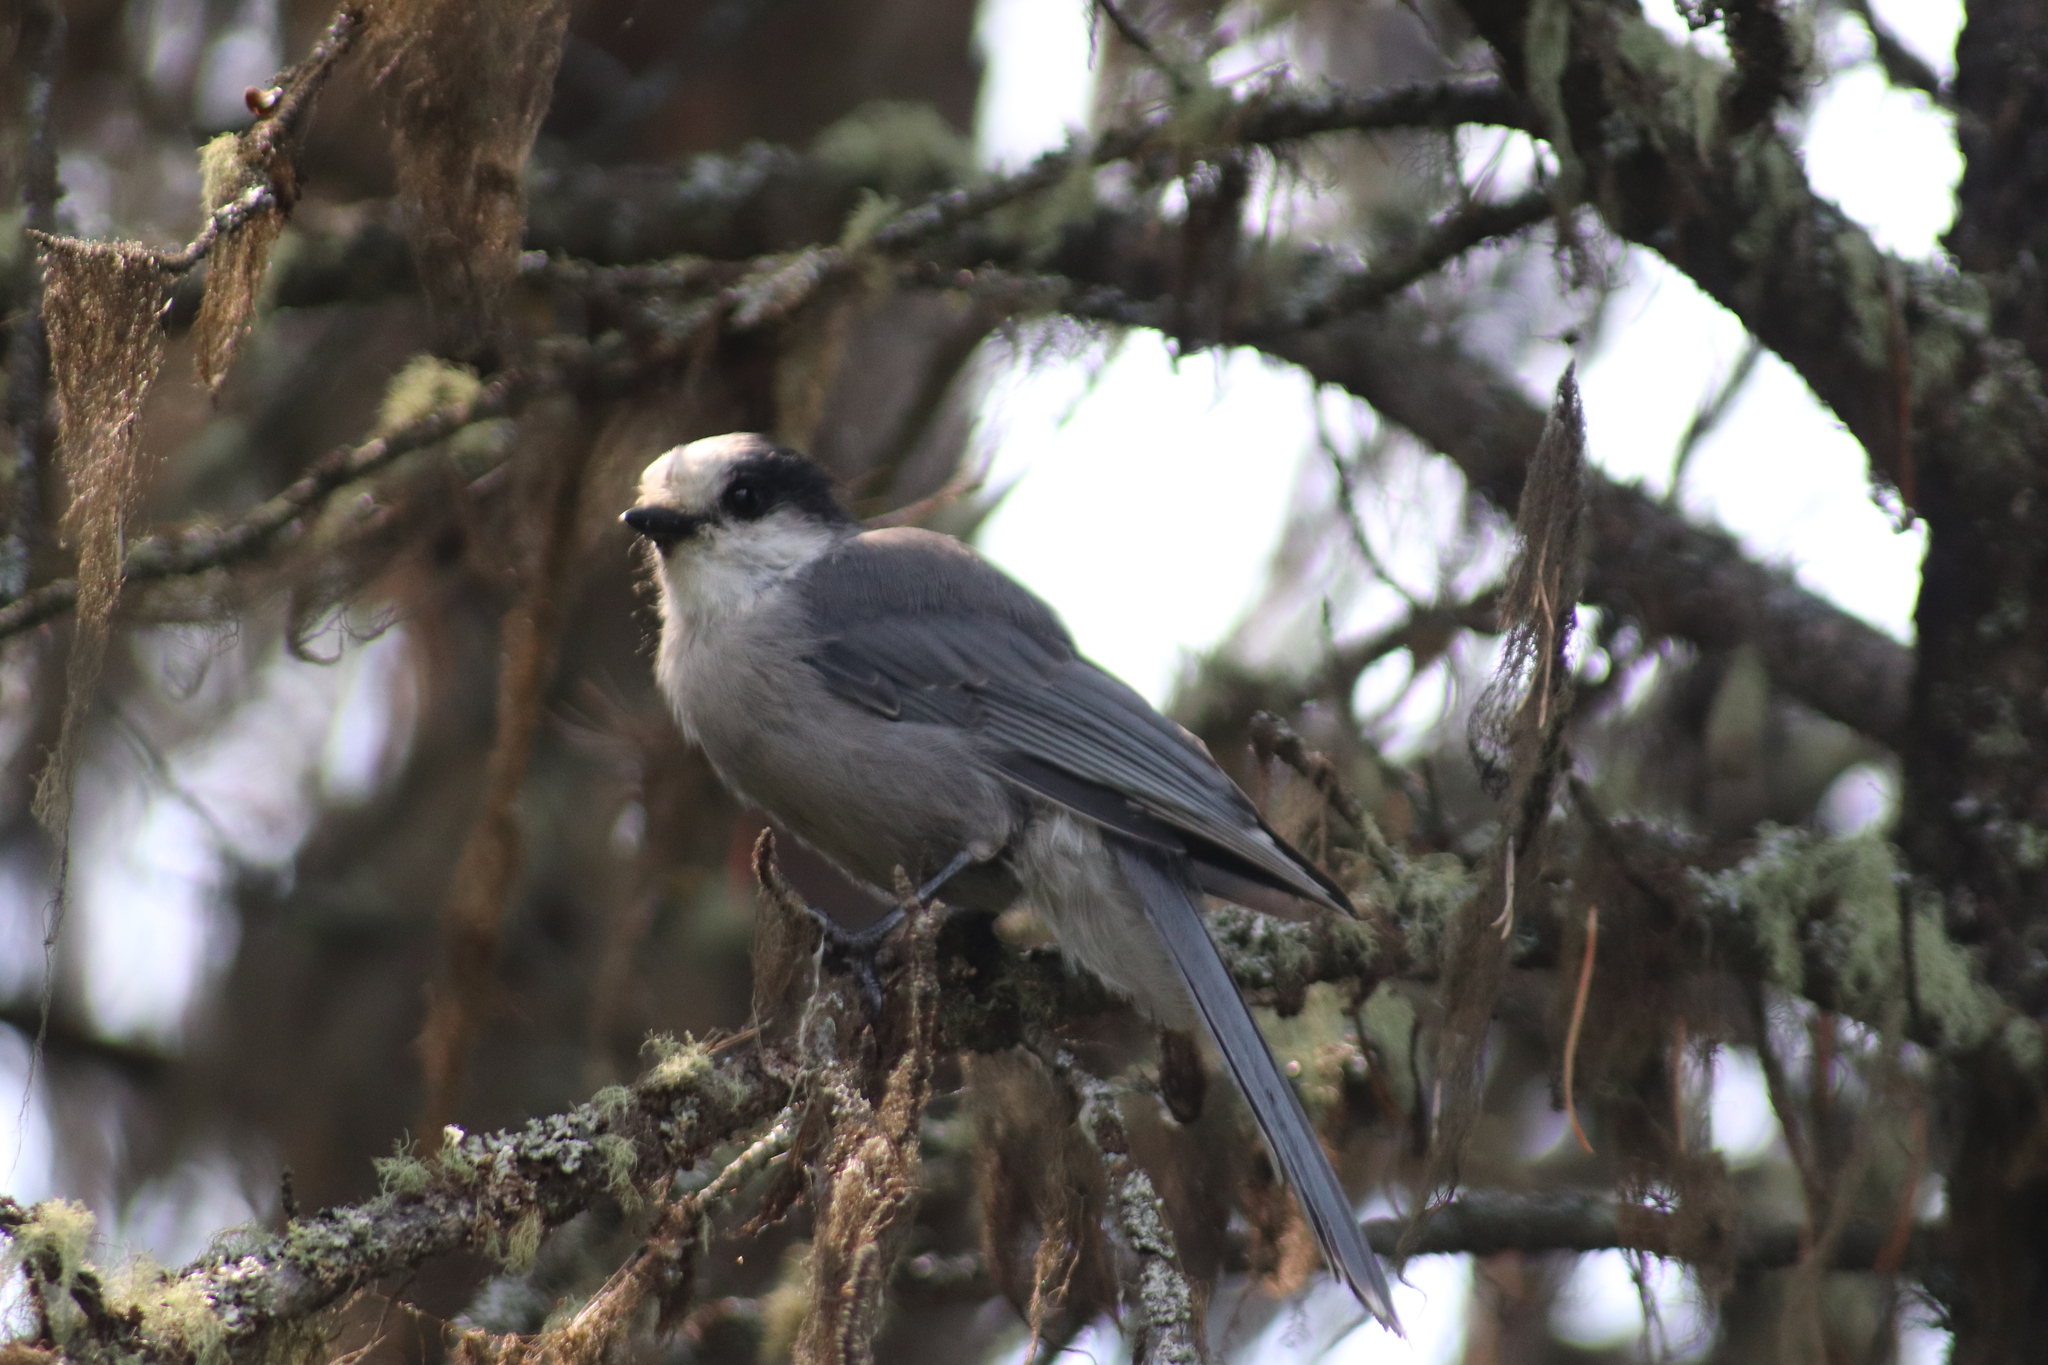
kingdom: Animalia
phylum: Chordata
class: Aves
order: Passeriformes
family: Corvidae
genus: Perisoreus
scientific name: Perisoreus canadensis
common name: Gray jay
